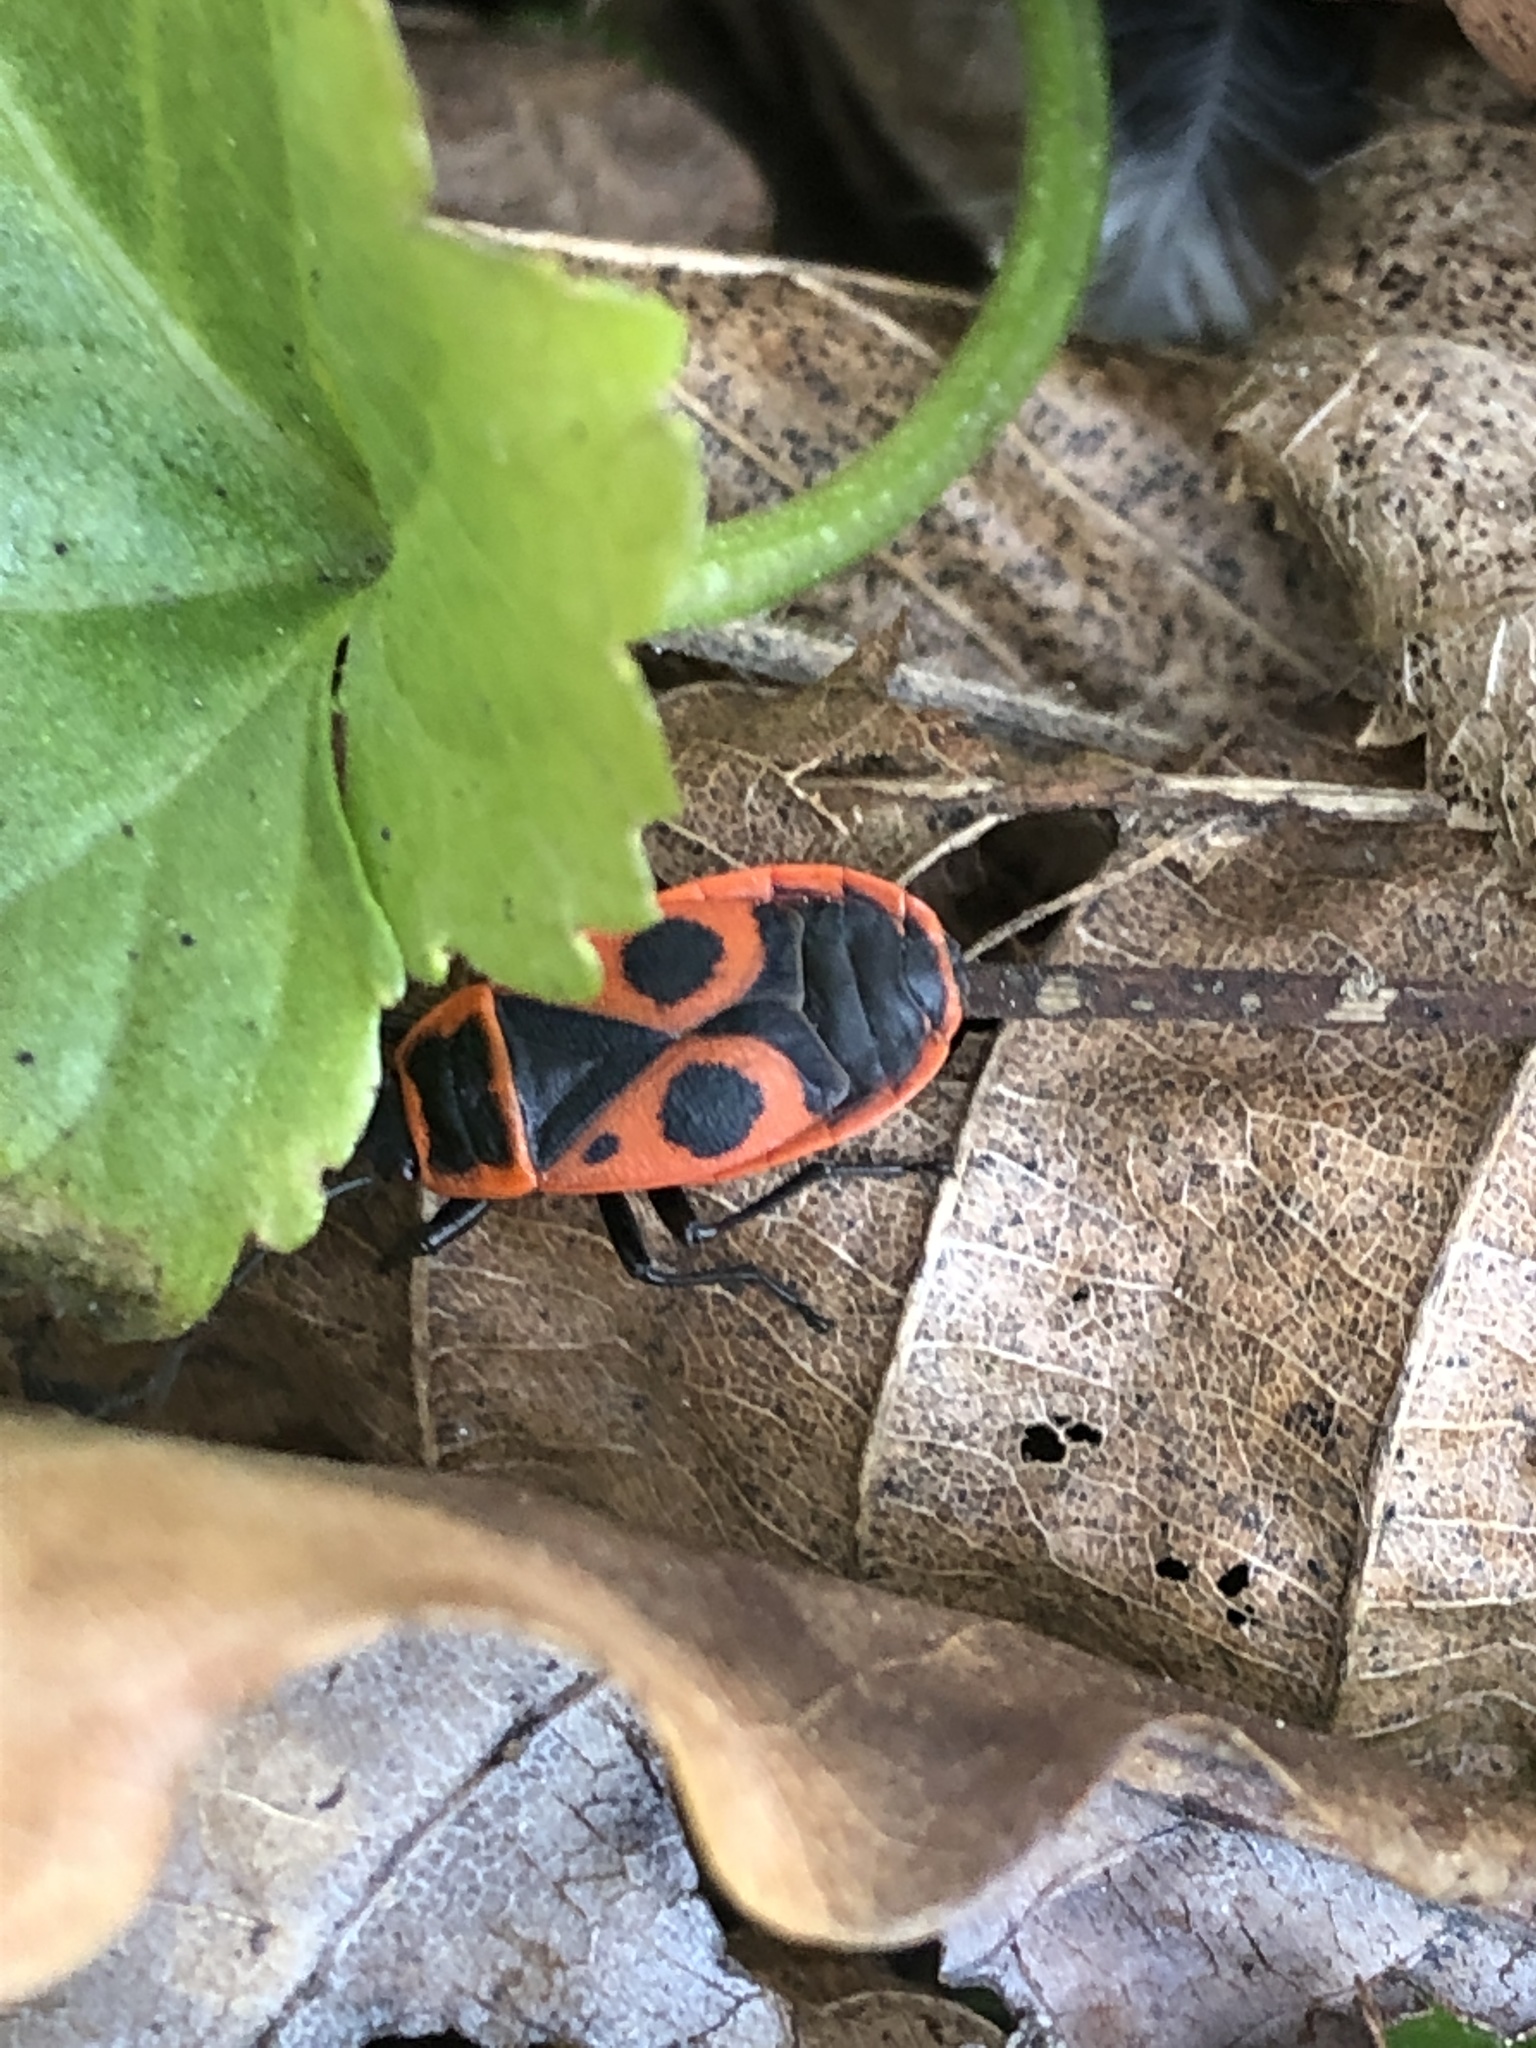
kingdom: Animalia
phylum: Arthropoda
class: Insecta
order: Hemiptera
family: Pyrrhocoridae
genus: Pyrrhocoris
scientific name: Pyrrhocoris apterus
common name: Firebug
